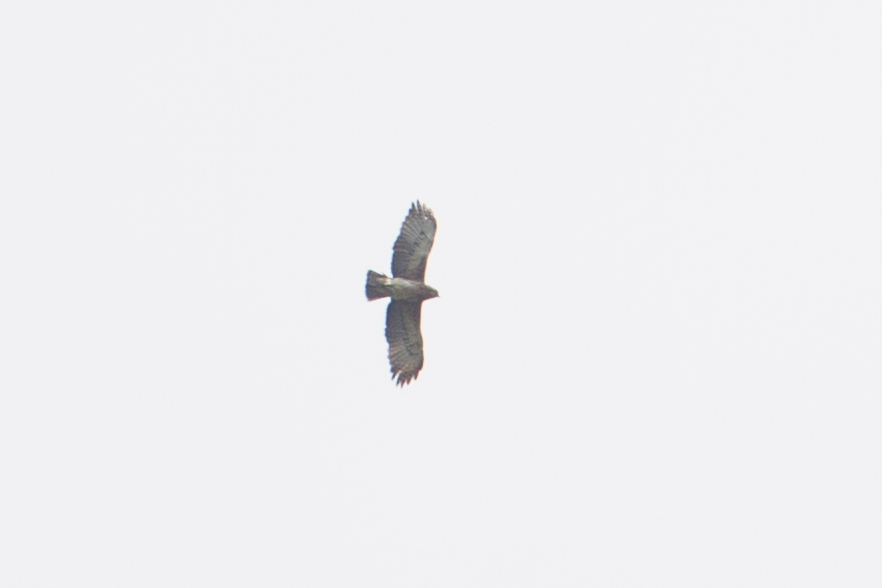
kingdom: Animalia
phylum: Chordata
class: Aves
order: Accipitriformes
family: Accipitridae
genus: Hieraaetus
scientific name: Hieraaetus weiskei
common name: Pygmy eagle
